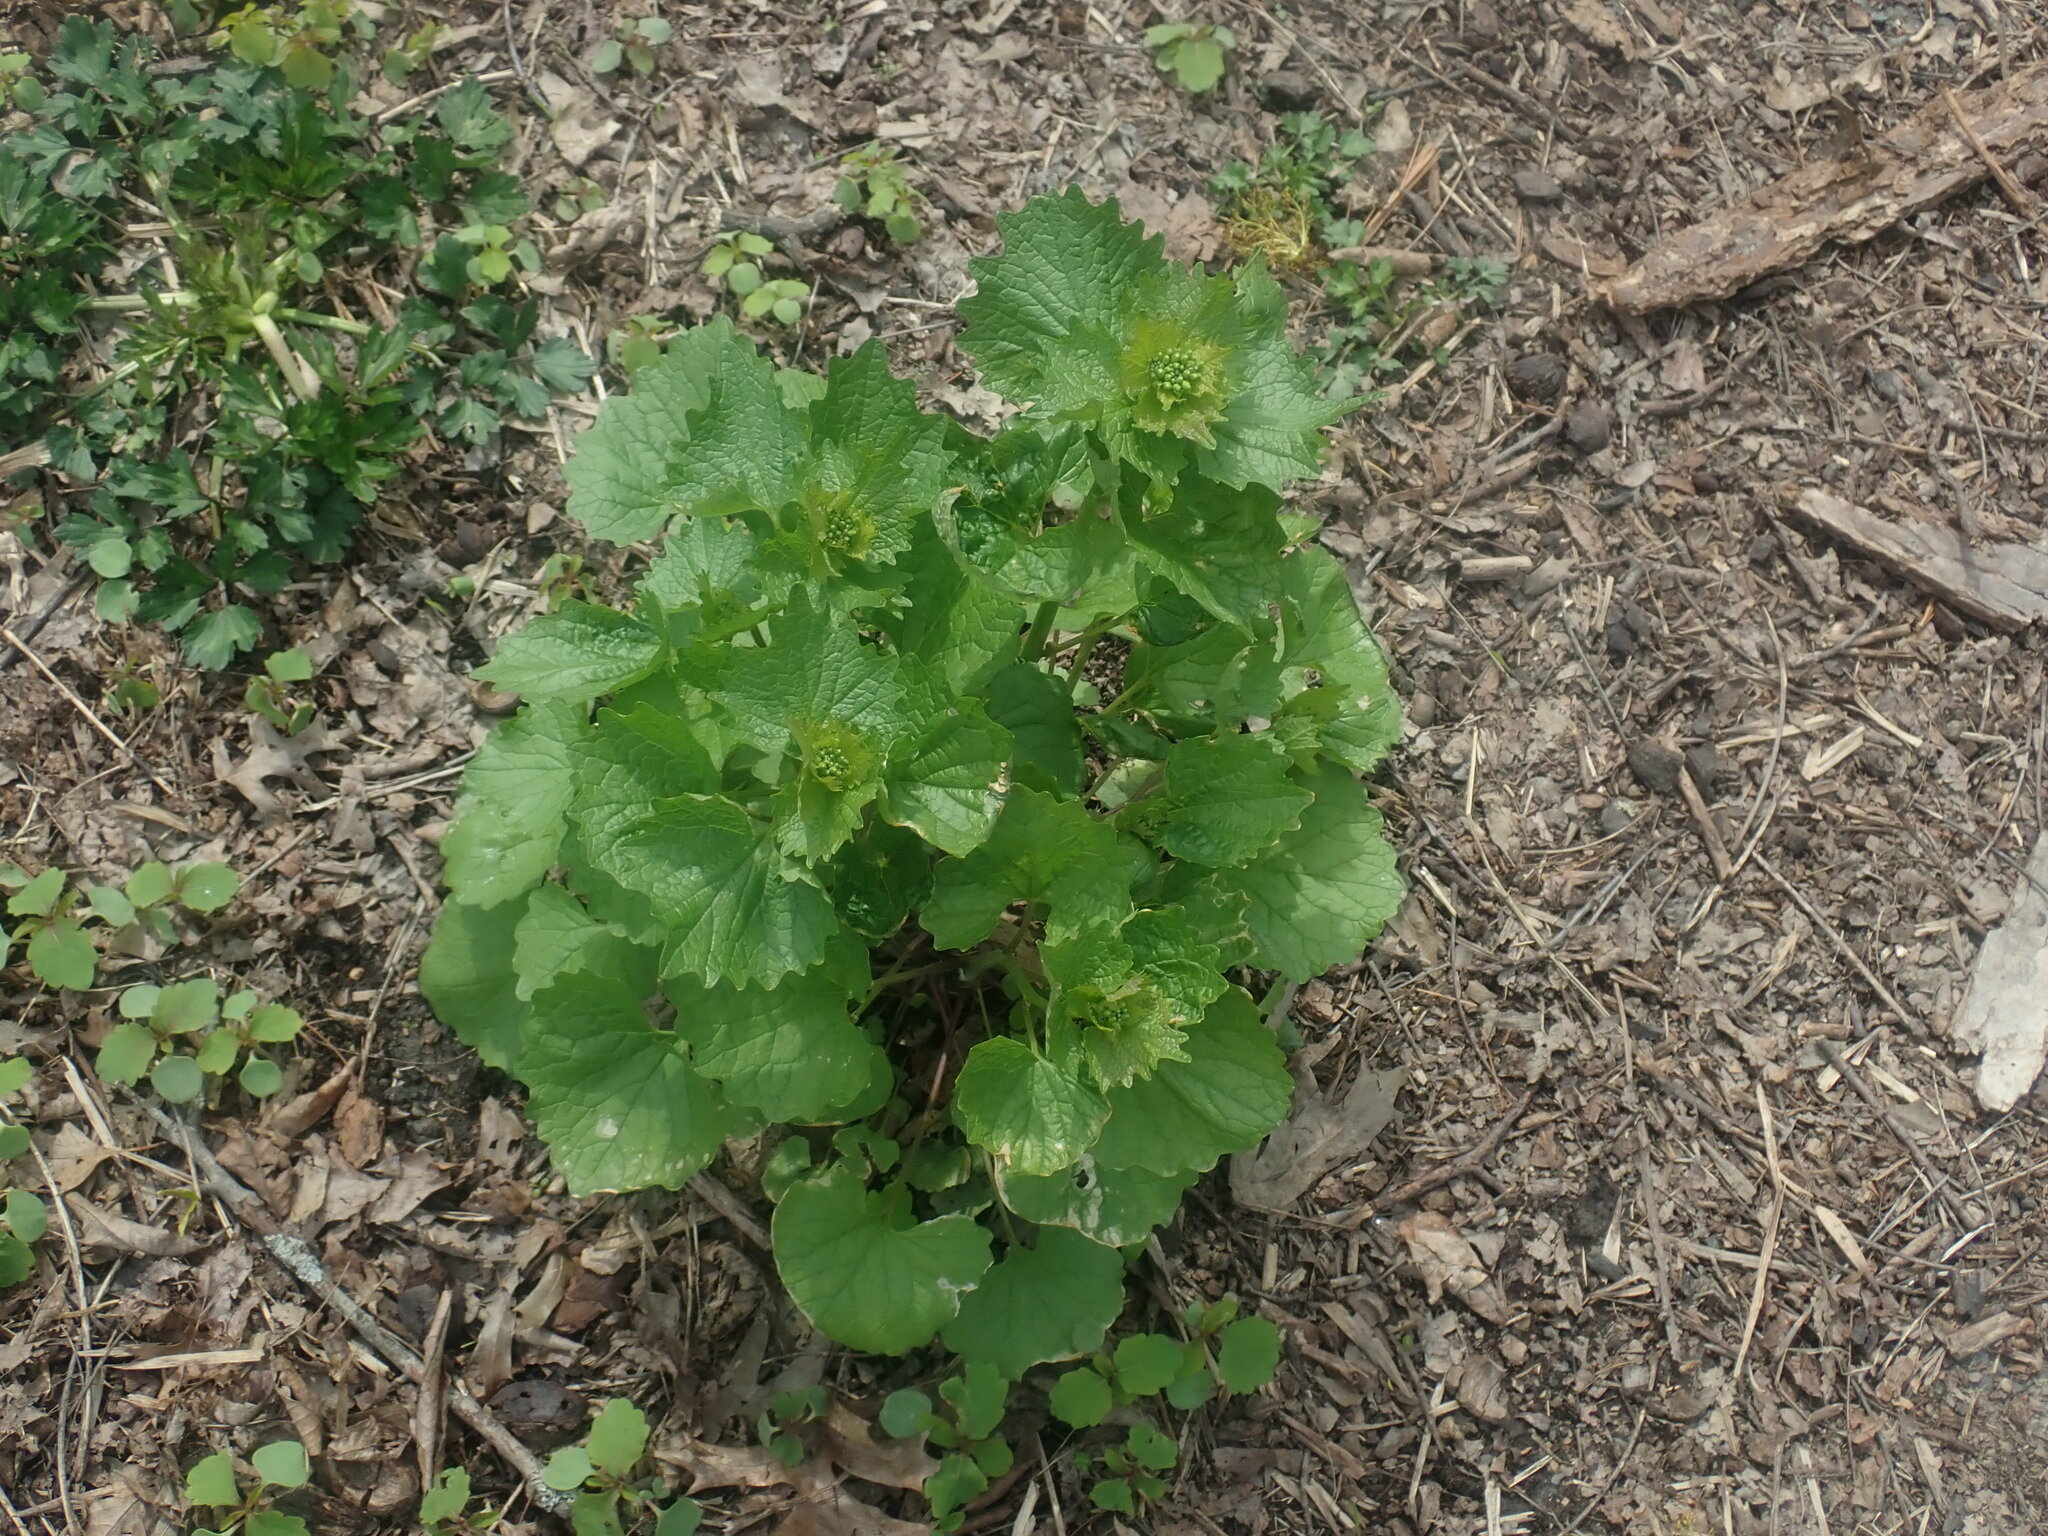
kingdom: Plantae
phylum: Tracheophyta
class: Magnoliopsida
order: Brassicales
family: Brassicaceae
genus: Alliaria
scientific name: Alliaria petiolata
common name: Garlic mustard
